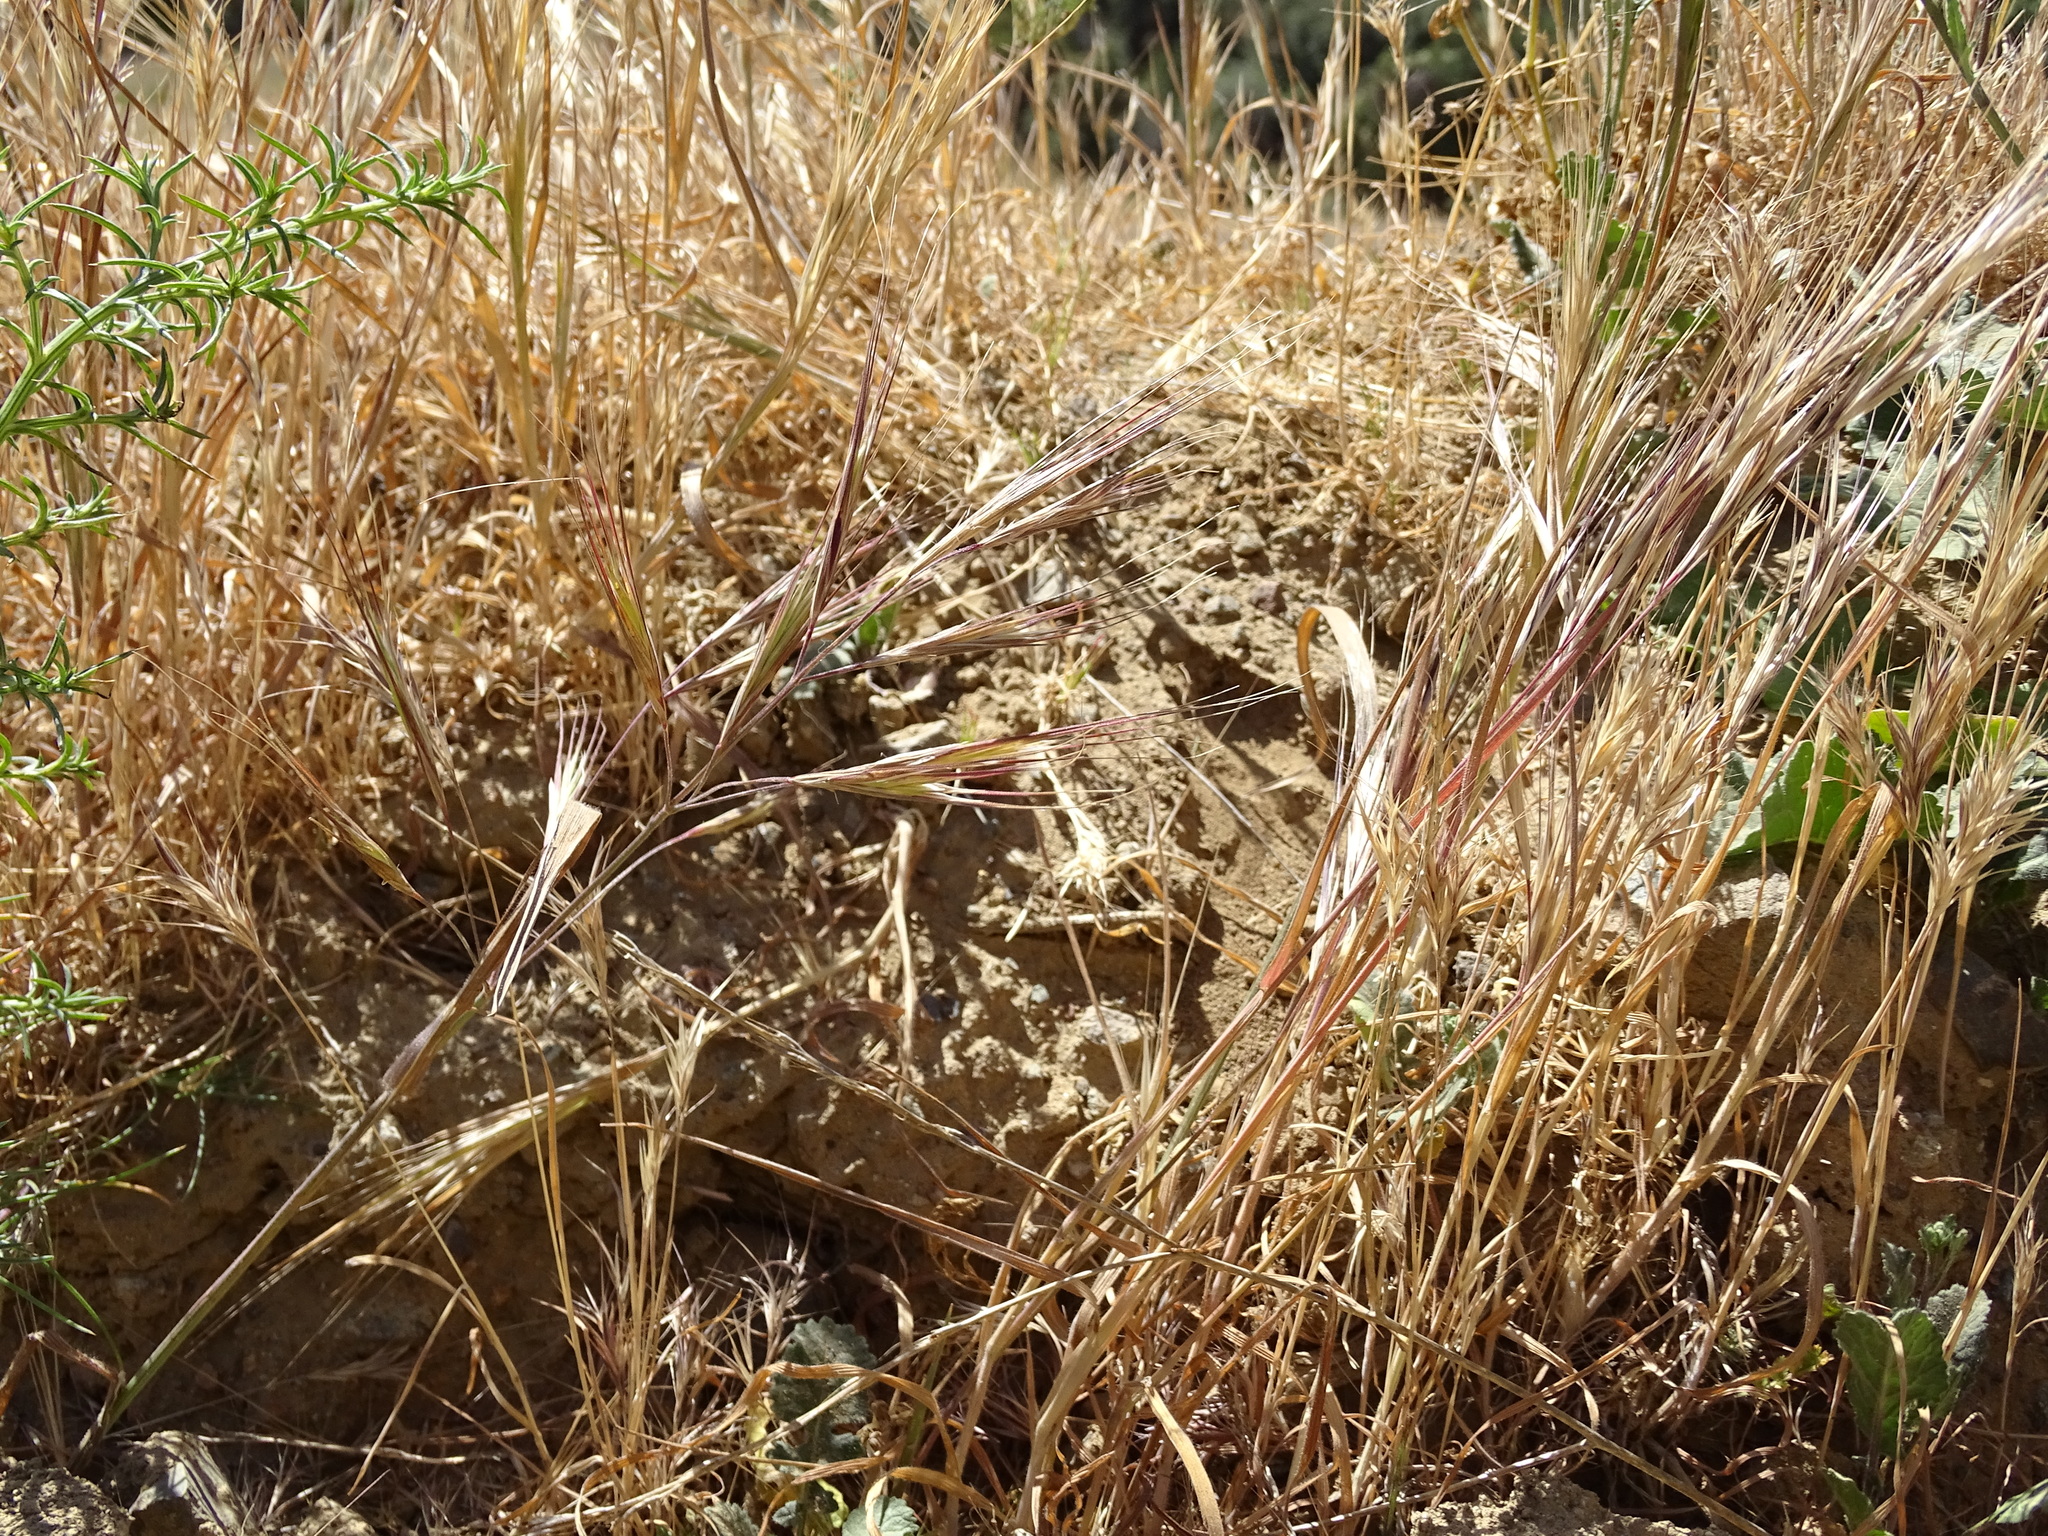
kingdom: Plantae
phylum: Tracheophyta
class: Liliopsida
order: Poales
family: Poaceae
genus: Bromus
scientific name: Bromus diandrus
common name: Ripgut brome
